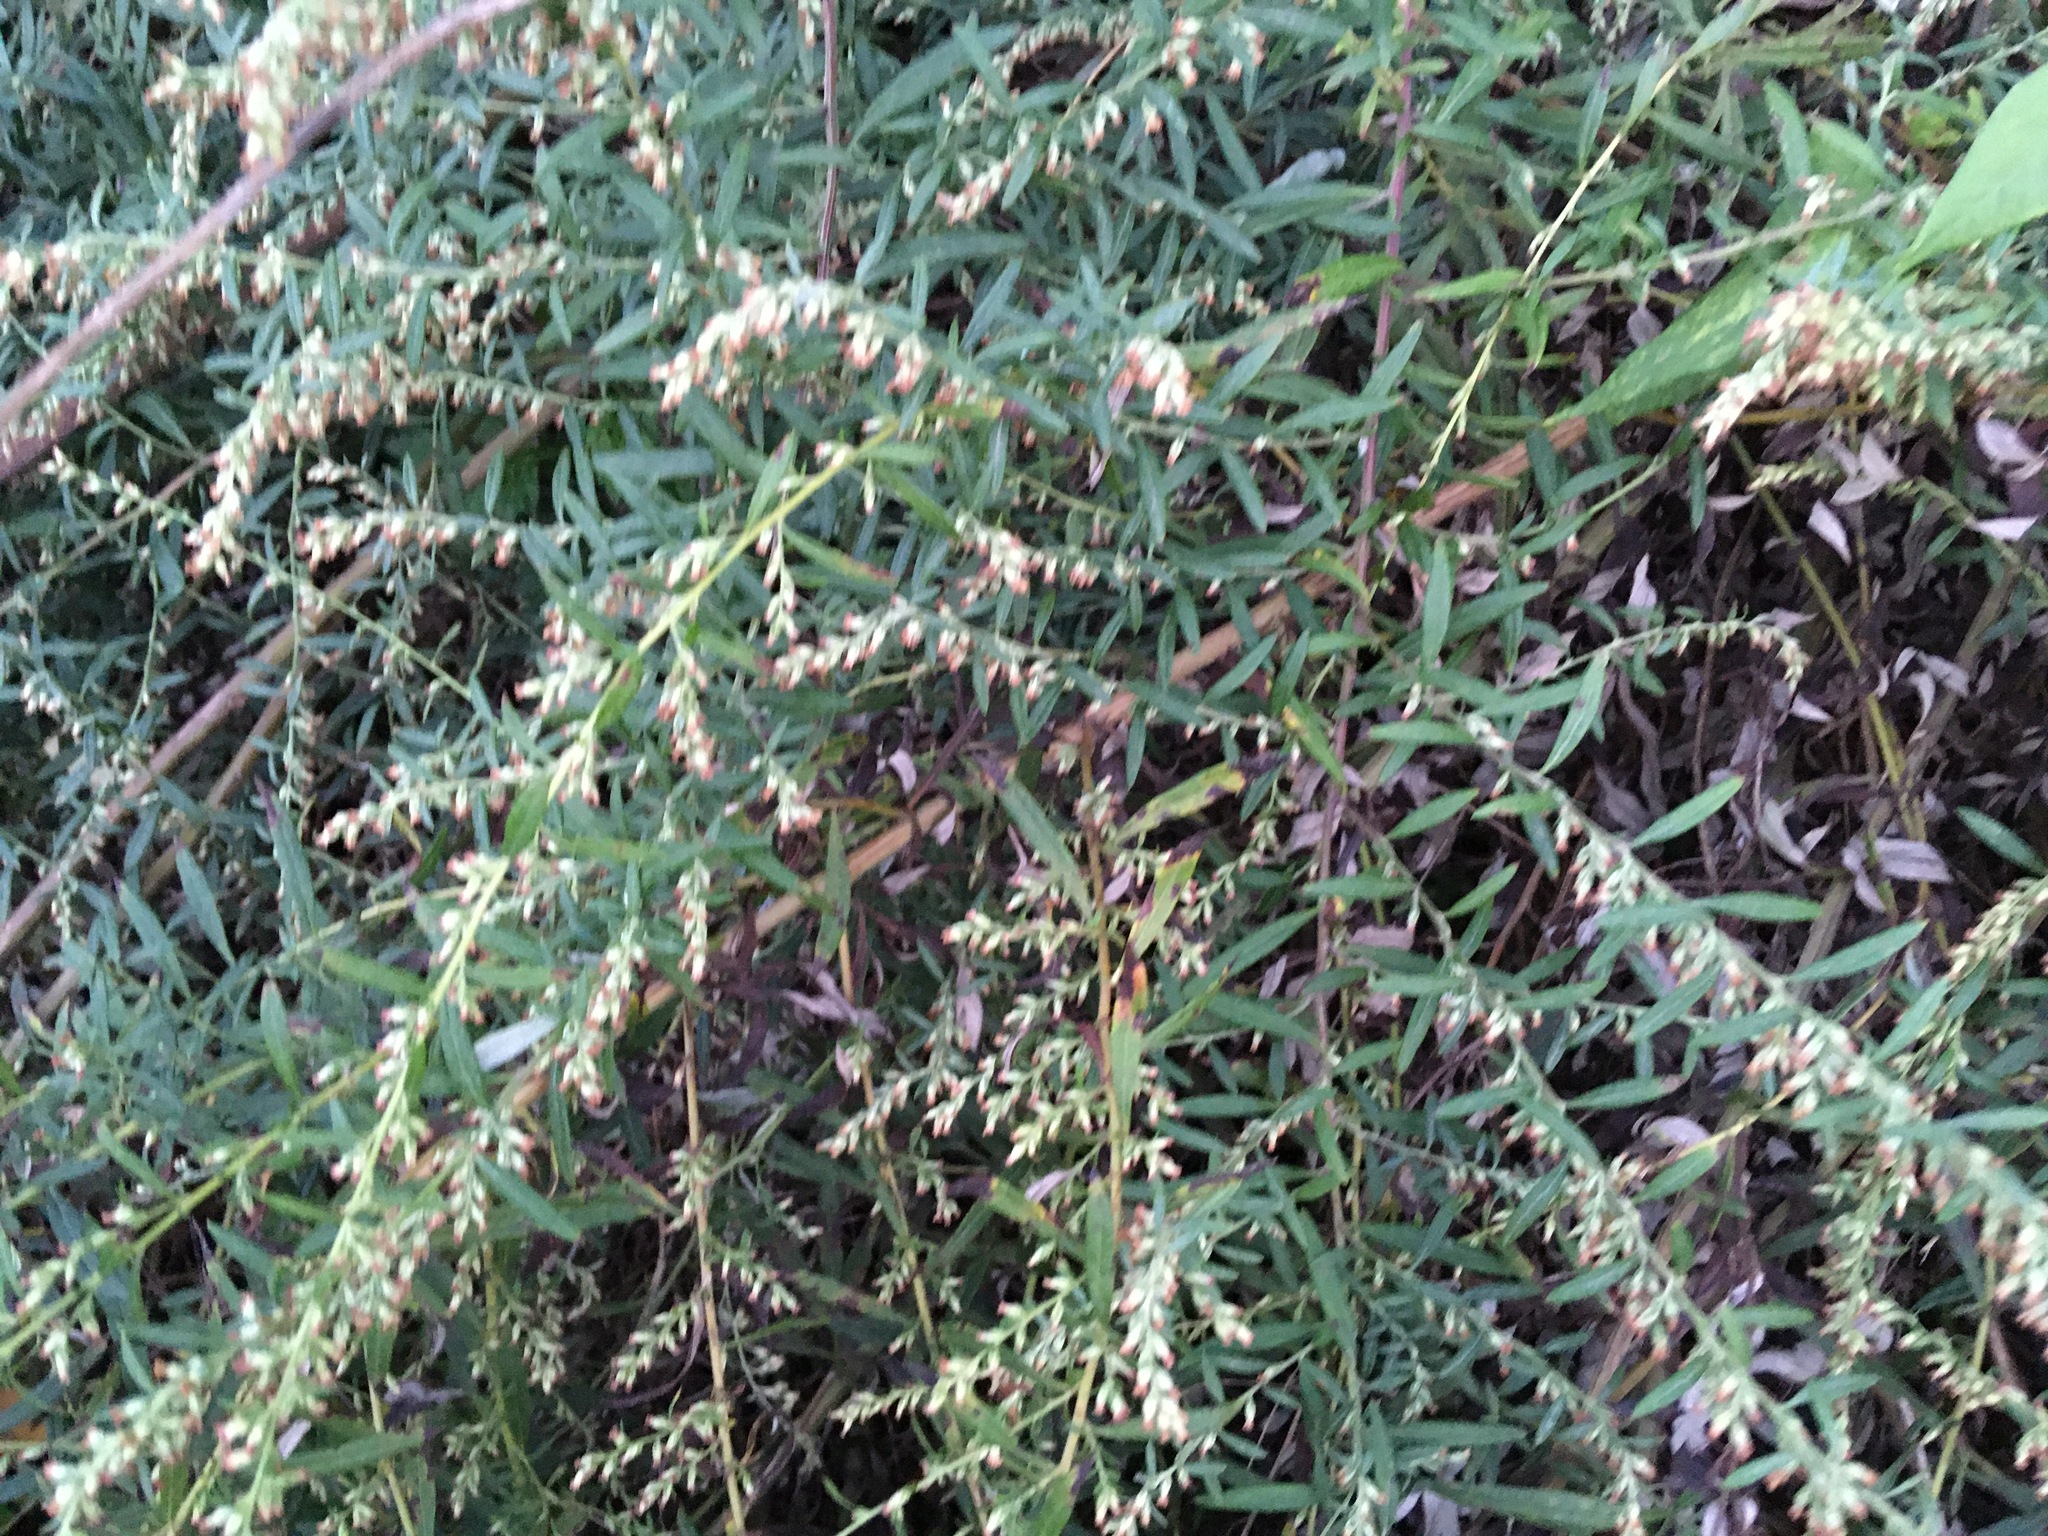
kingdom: Plantae
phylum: Tracheophyta
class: Magnoliopsida
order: Asterales
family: Asteraceae
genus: Artemisia
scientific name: Artemisia vulgaris
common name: Mugwort
